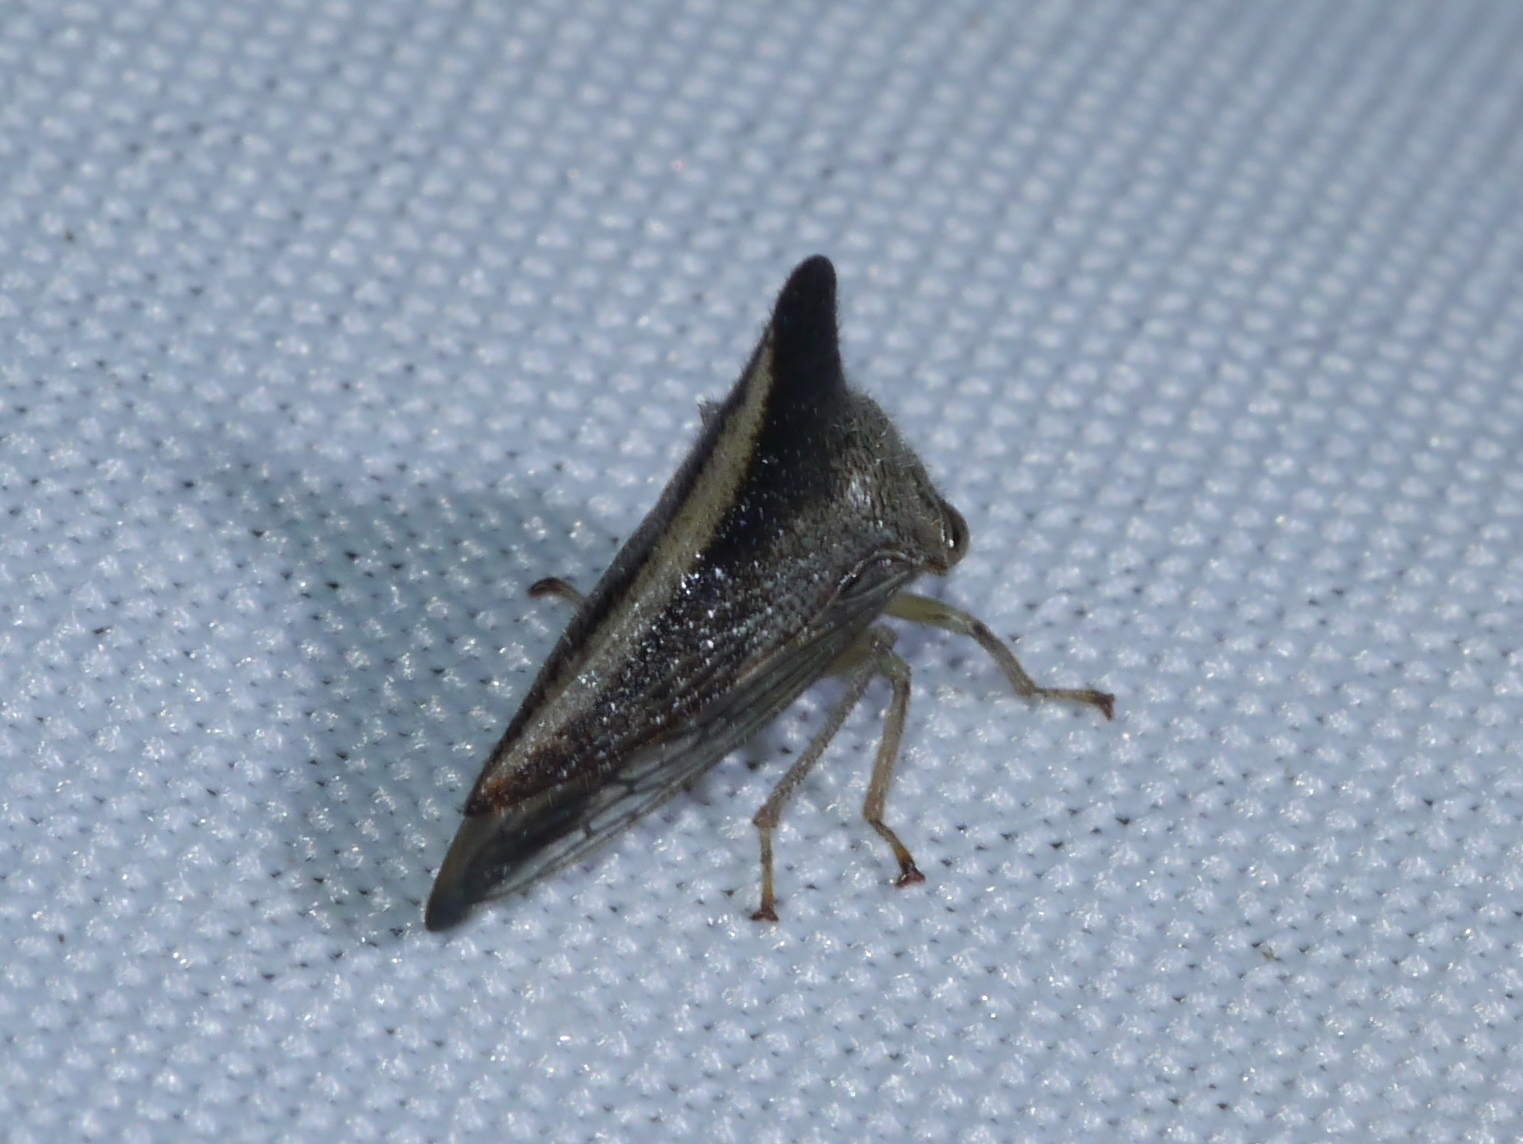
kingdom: Animalia
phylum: Arthropoda
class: Insecta
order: Hemiptera
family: Membracidae
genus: Glossonotus
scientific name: Glossonotus turriculata
